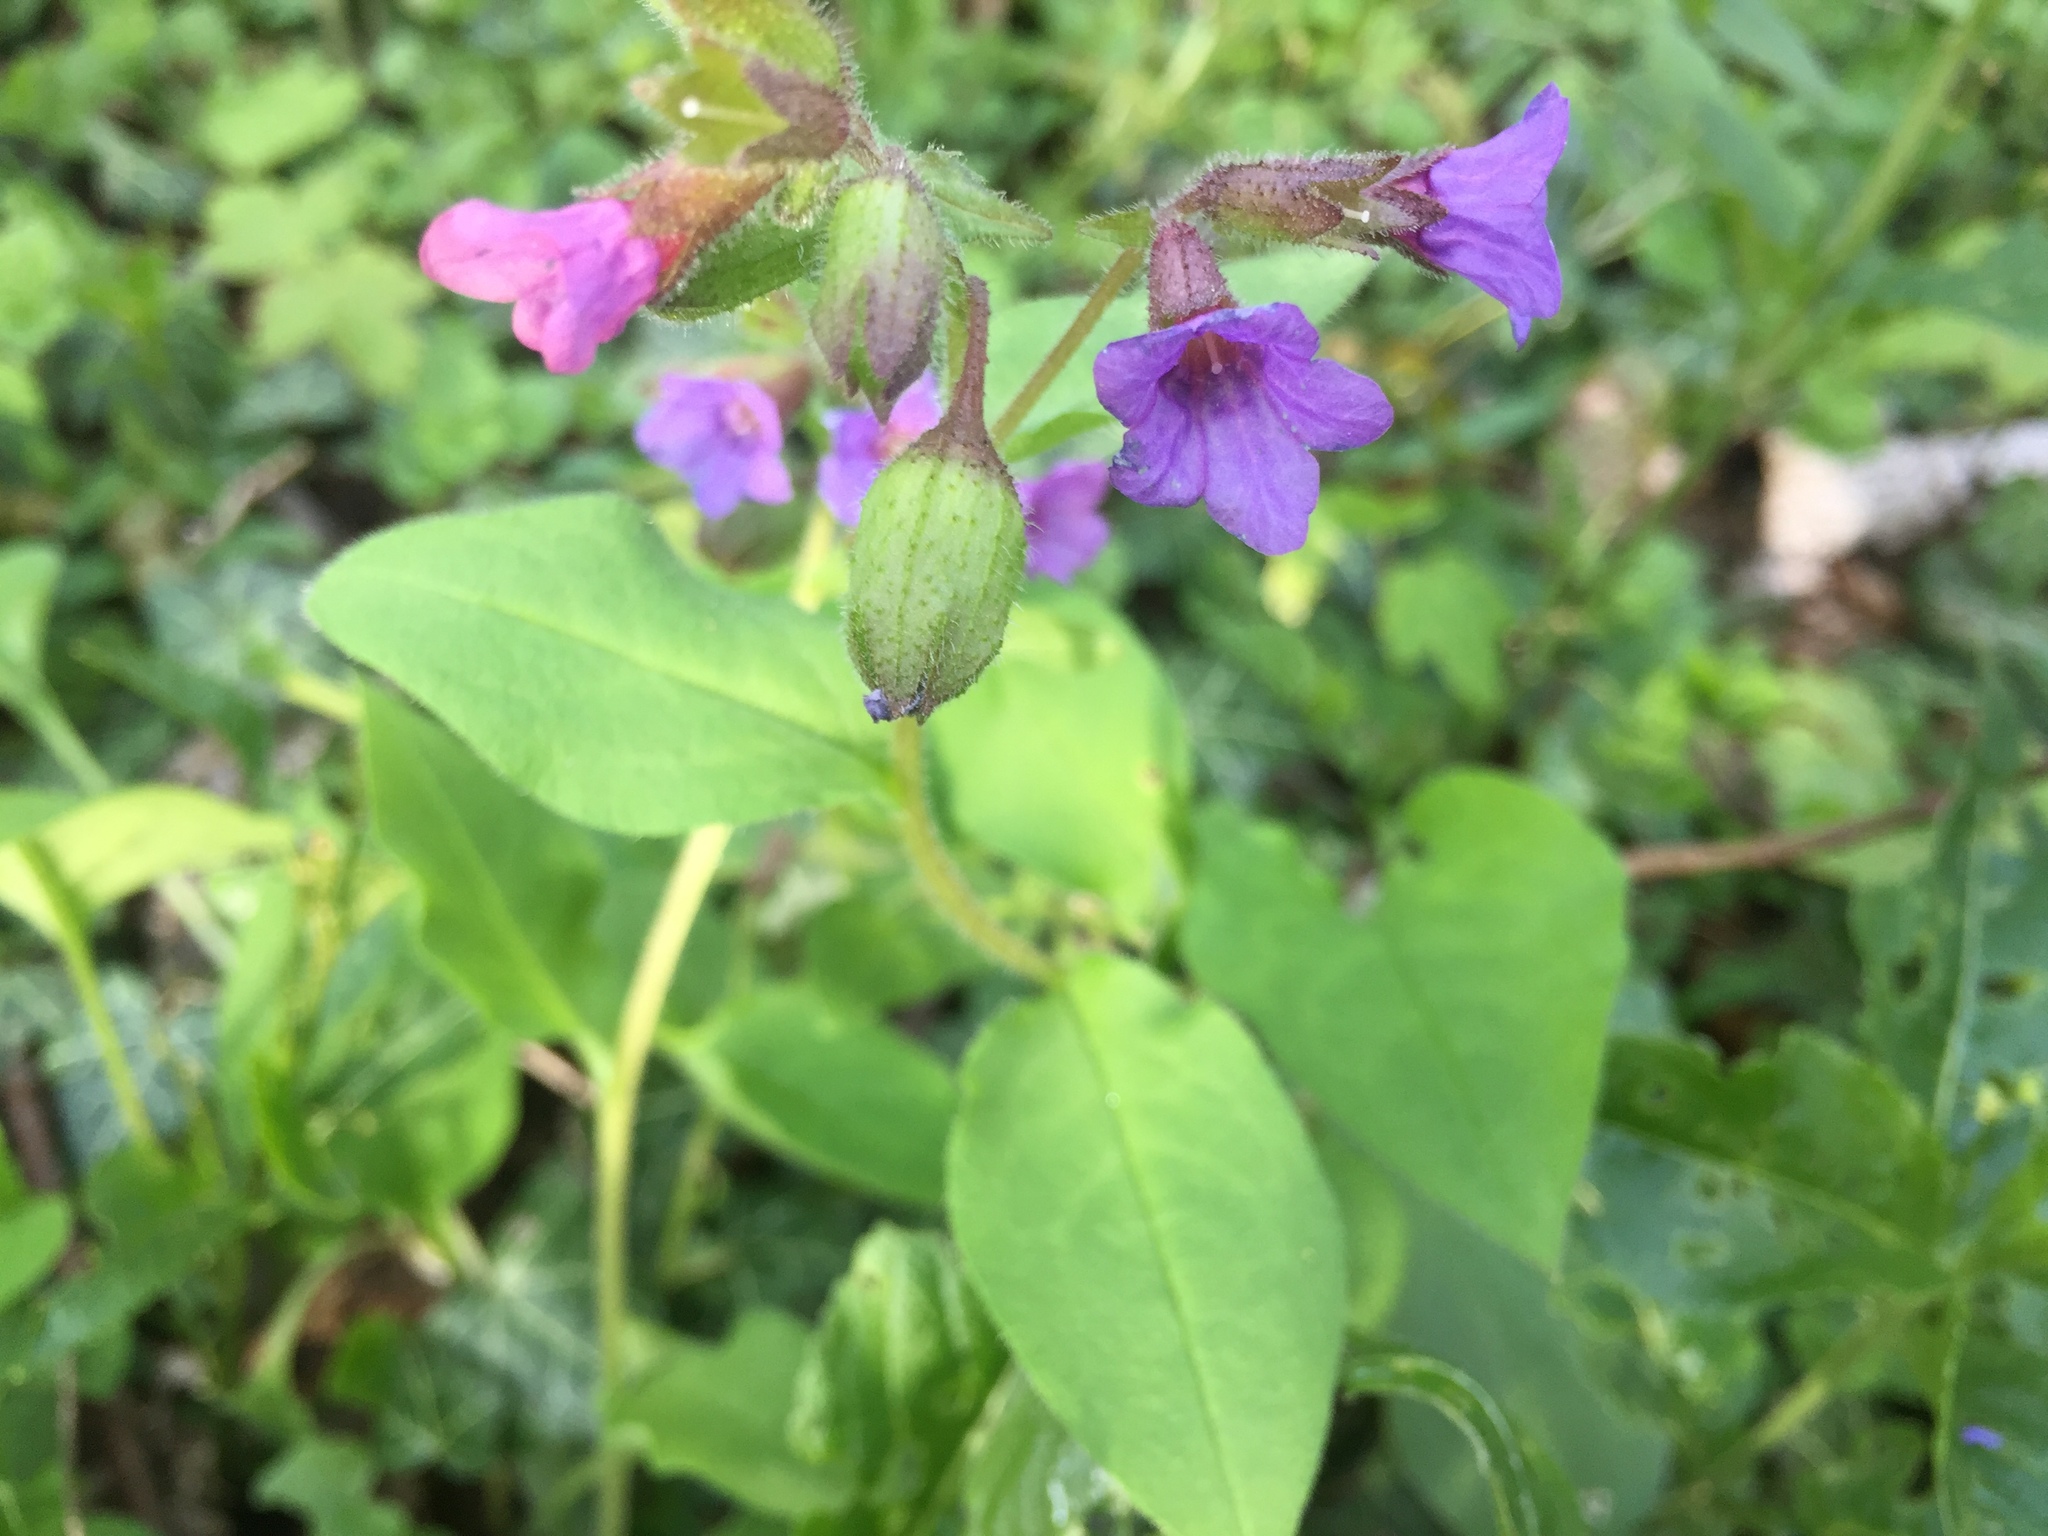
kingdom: Plantae
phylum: Tracheophyta
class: Magnoliopsida
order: Boraginales
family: Boraginaceae
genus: Pulmonaria
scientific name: Pulmonaria obscura
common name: Suffolk lungwort
